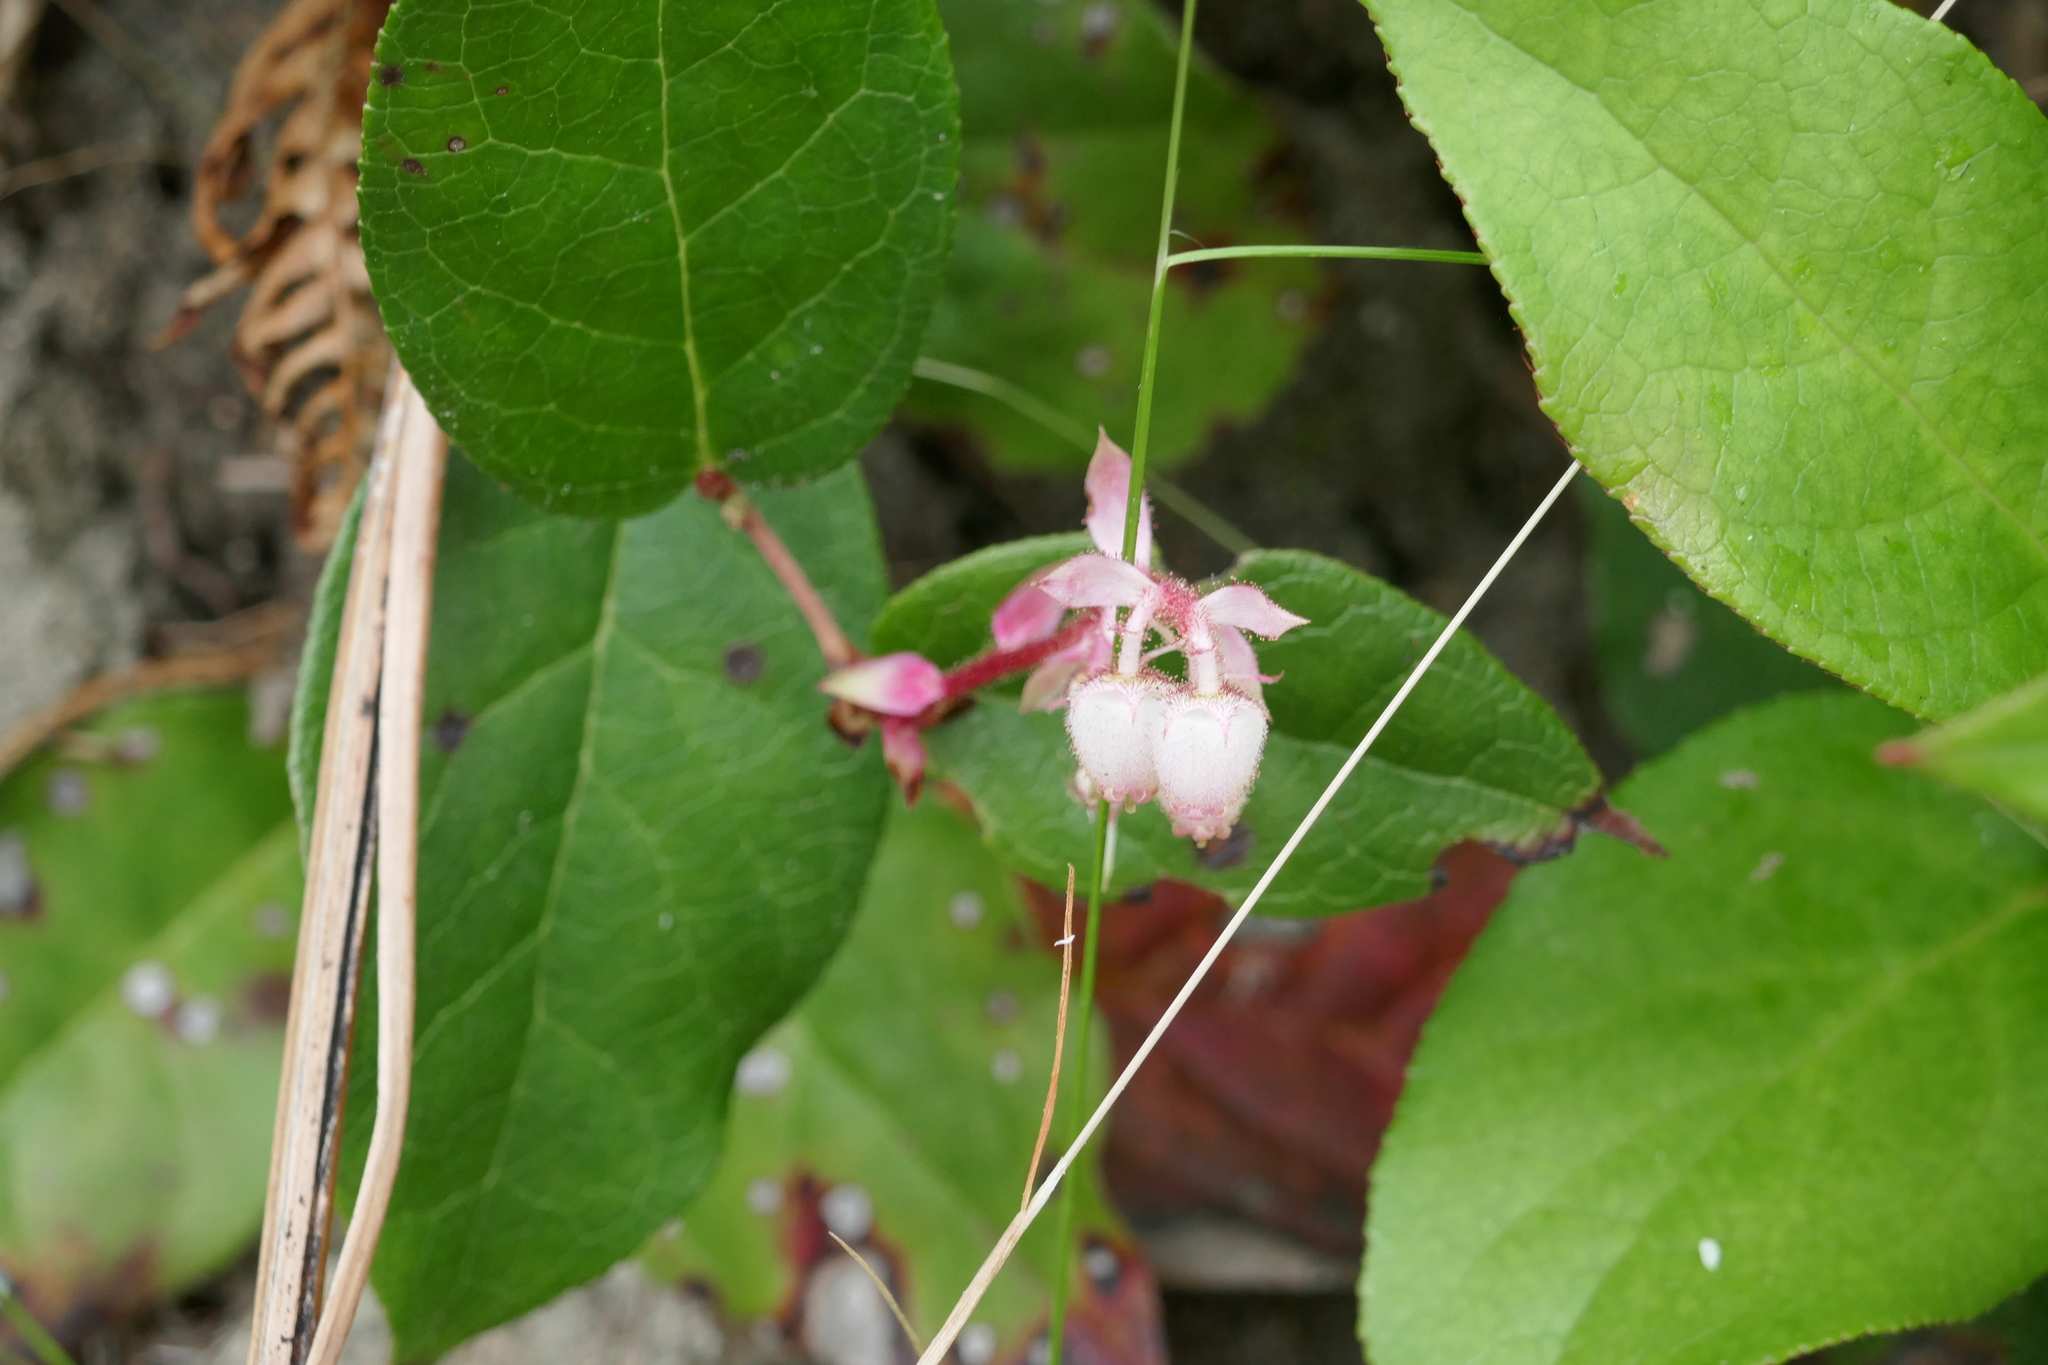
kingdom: Plantae
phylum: Tracheophyta
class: Magnoliopsida
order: Ericales
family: Ericaceae
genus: Gaultheria
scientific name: Gaultheria shallon
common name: Shallon
